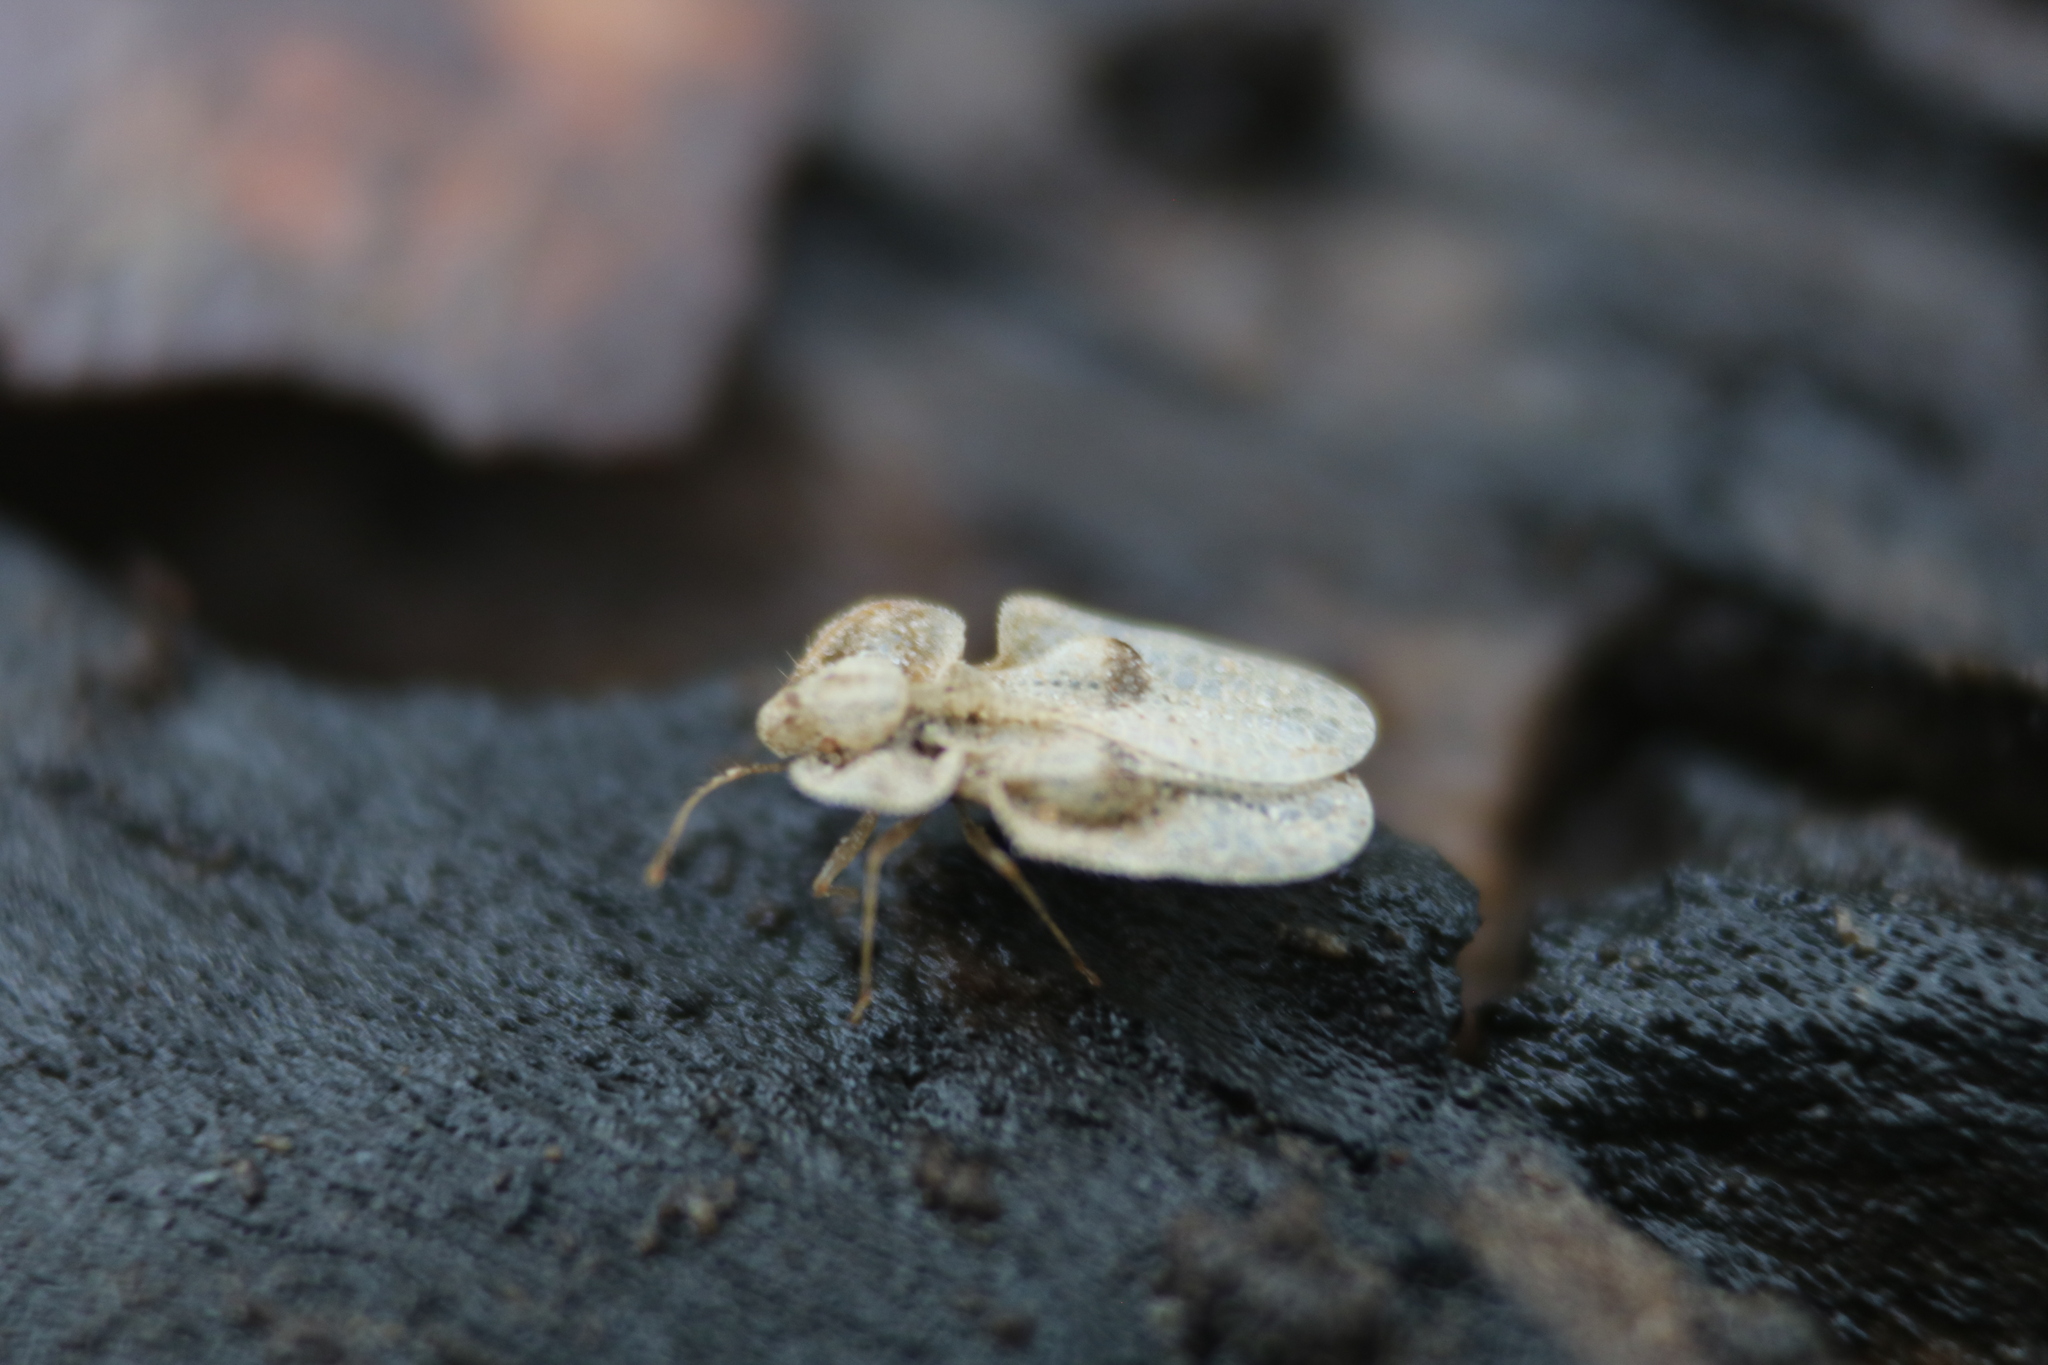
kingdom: Animalia
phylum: Arthropoda
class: Insecta
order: Hemiptera
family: Tingidae
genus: Corythucha
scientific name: Corythucha ciliata
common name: Sycamore lace bug
